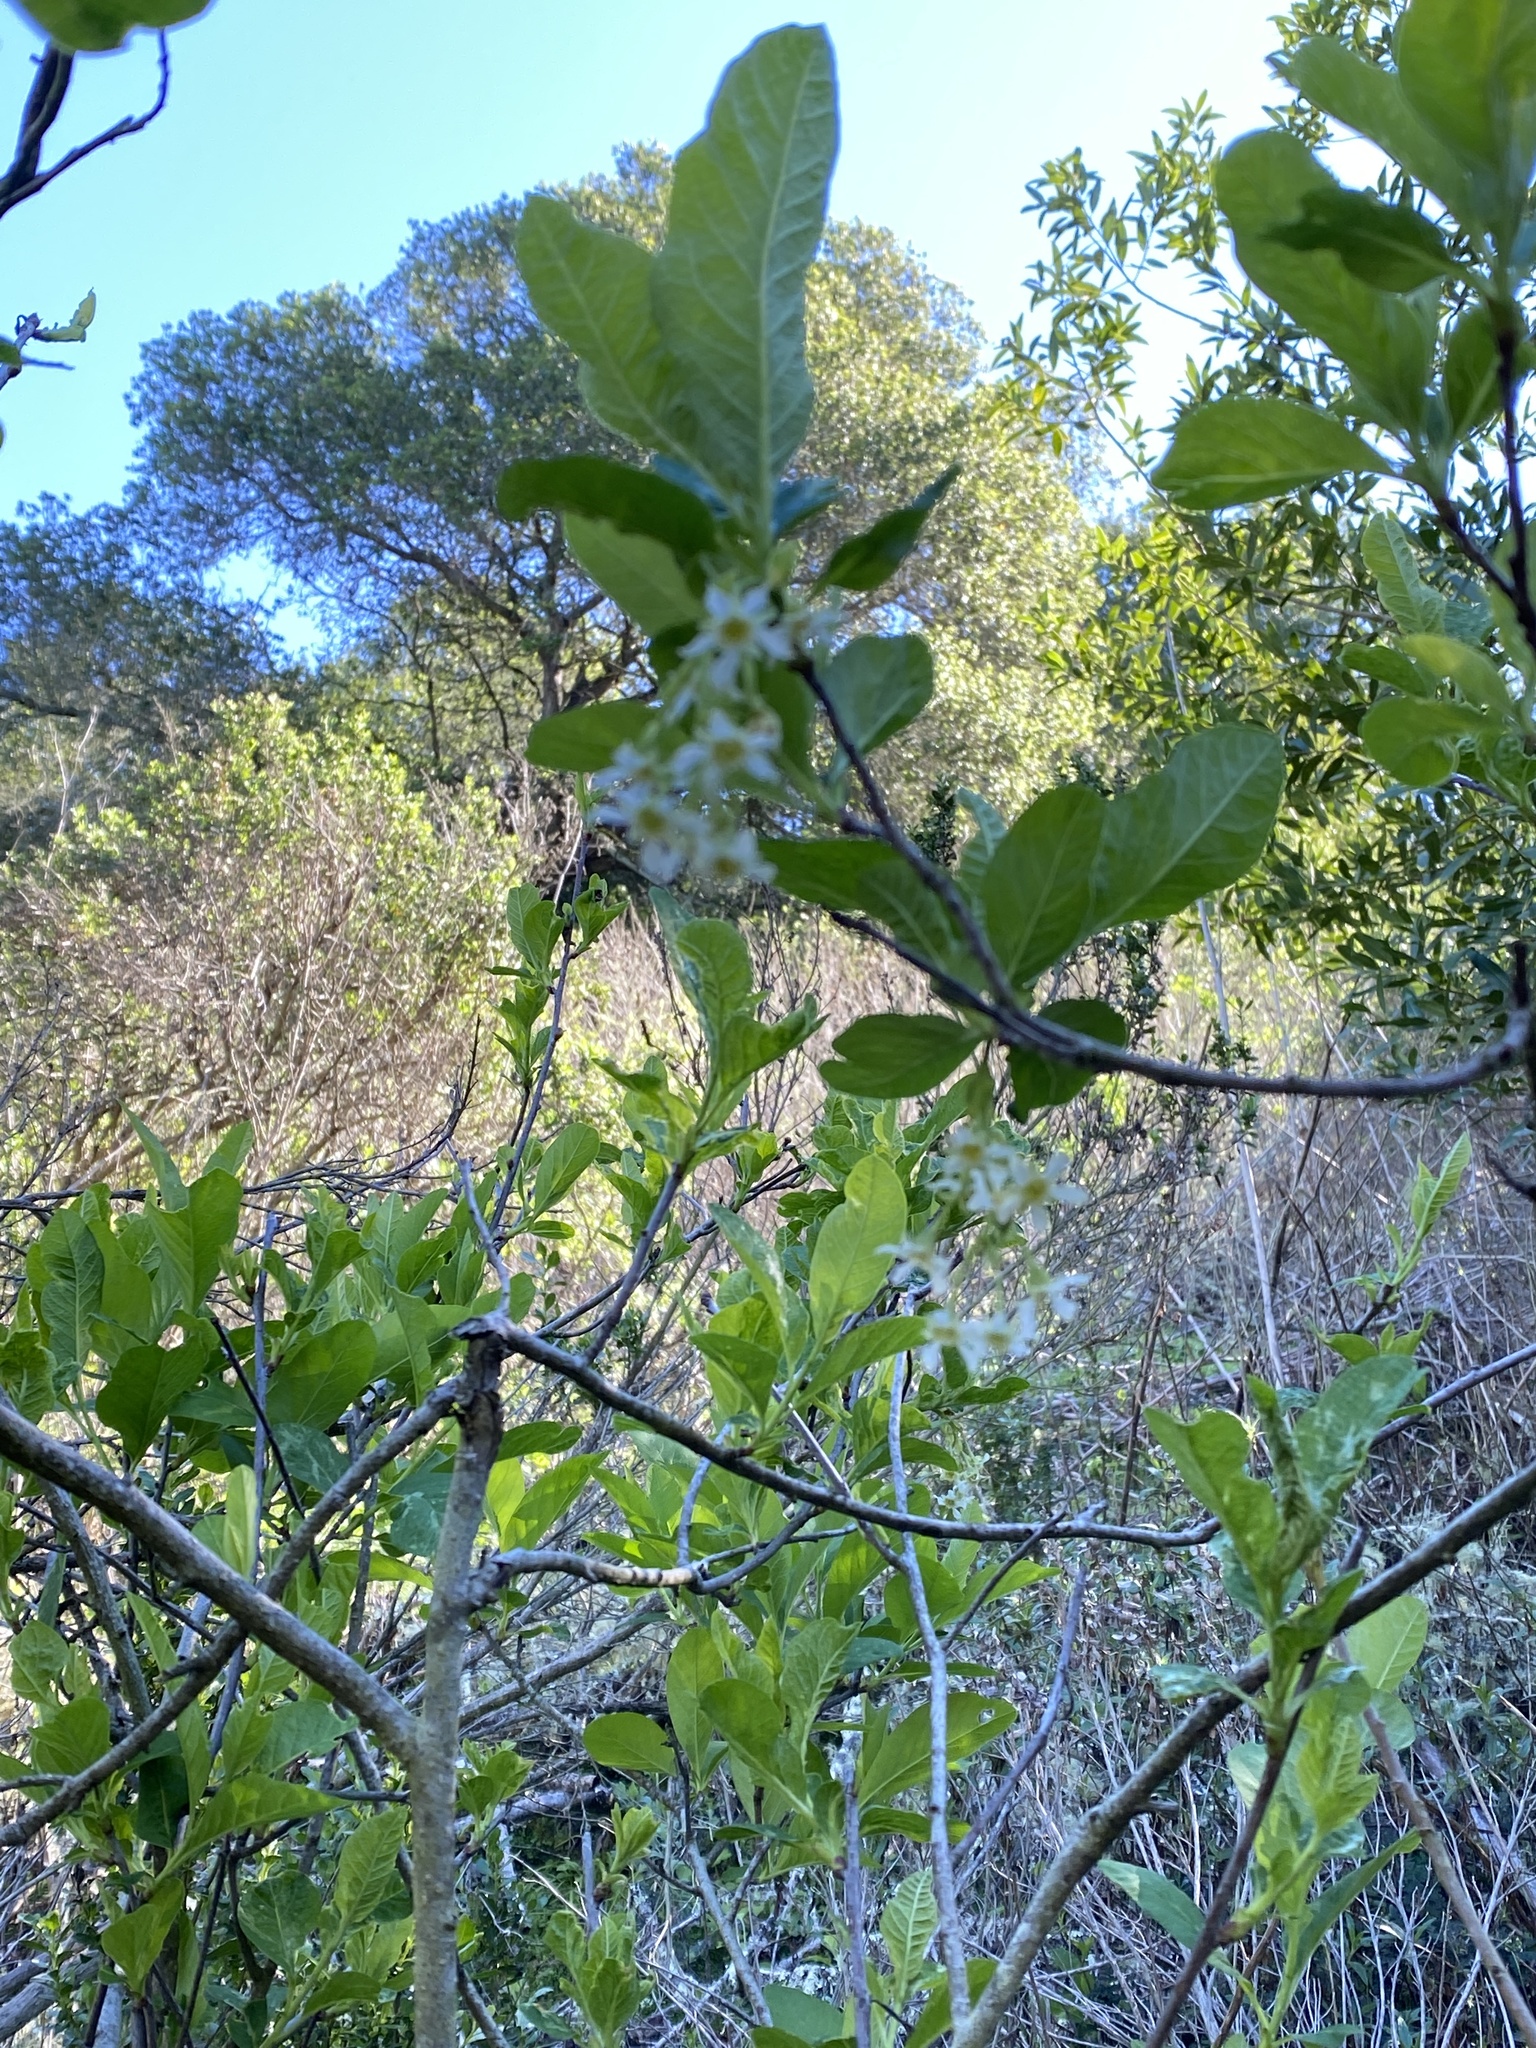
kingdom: Plantae
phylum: Tracheophyta
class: Magnoliopsida
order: Rosales
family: Rosaceae
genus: Oemleria
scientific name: Oemleria cerasiformis
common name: Osoberry
